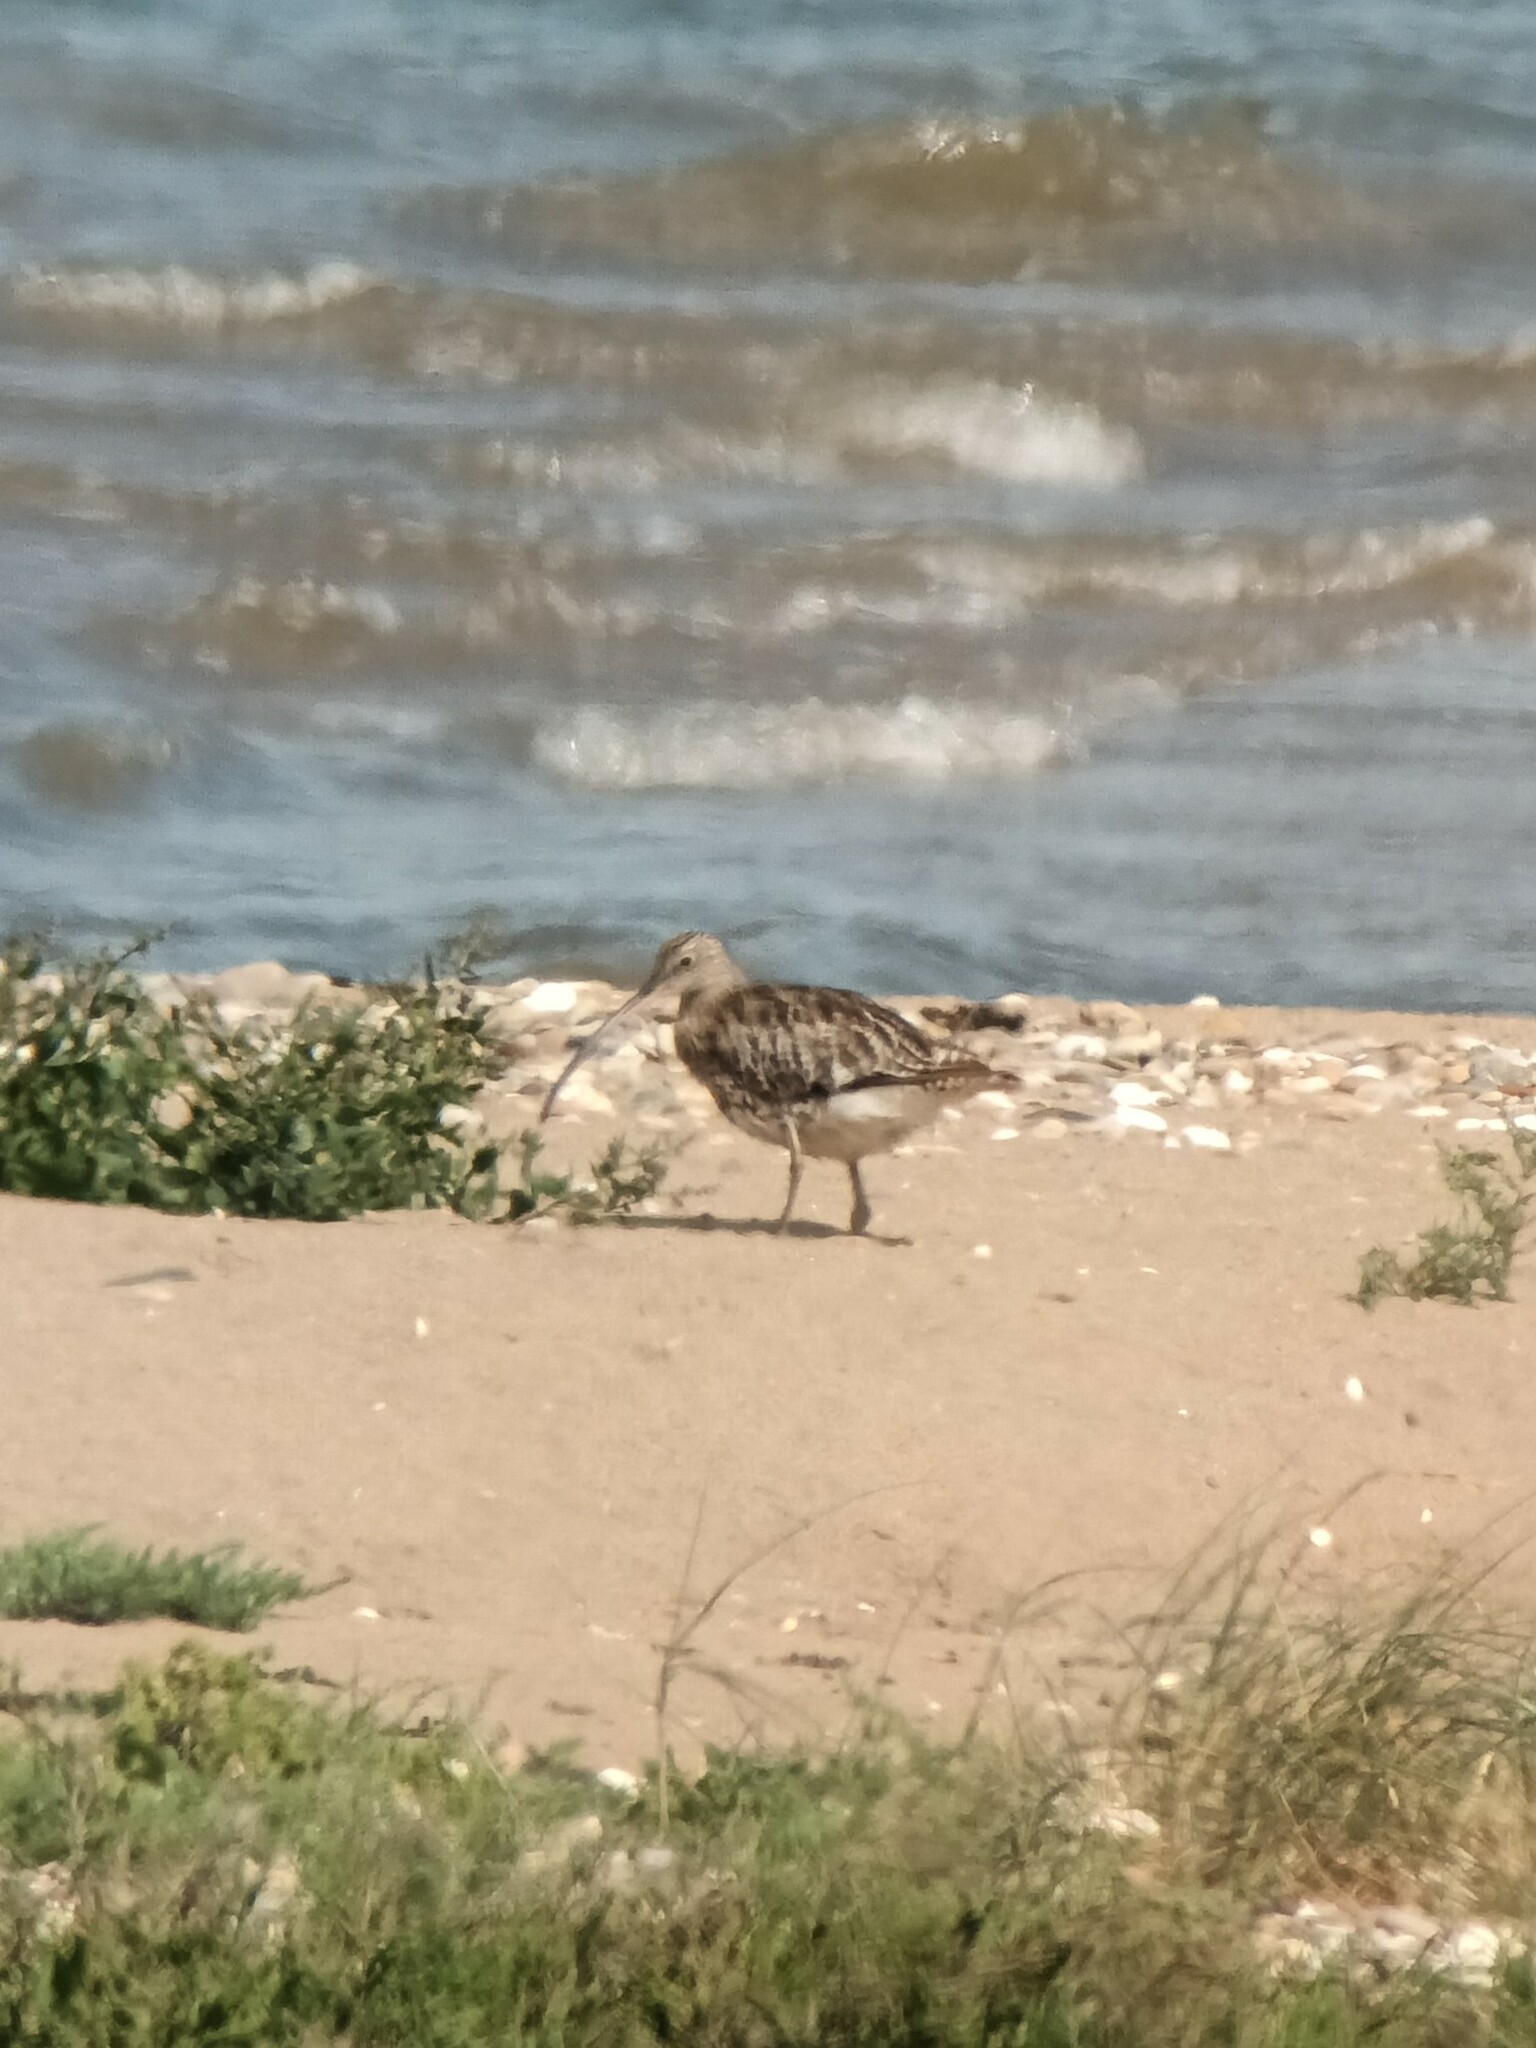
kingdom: Animalia
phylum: Chordata
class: Aves
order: Charadriiformes
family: Scolopacidae
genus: Numenius
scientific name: Numenius arquata
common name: Eurasian curlew
